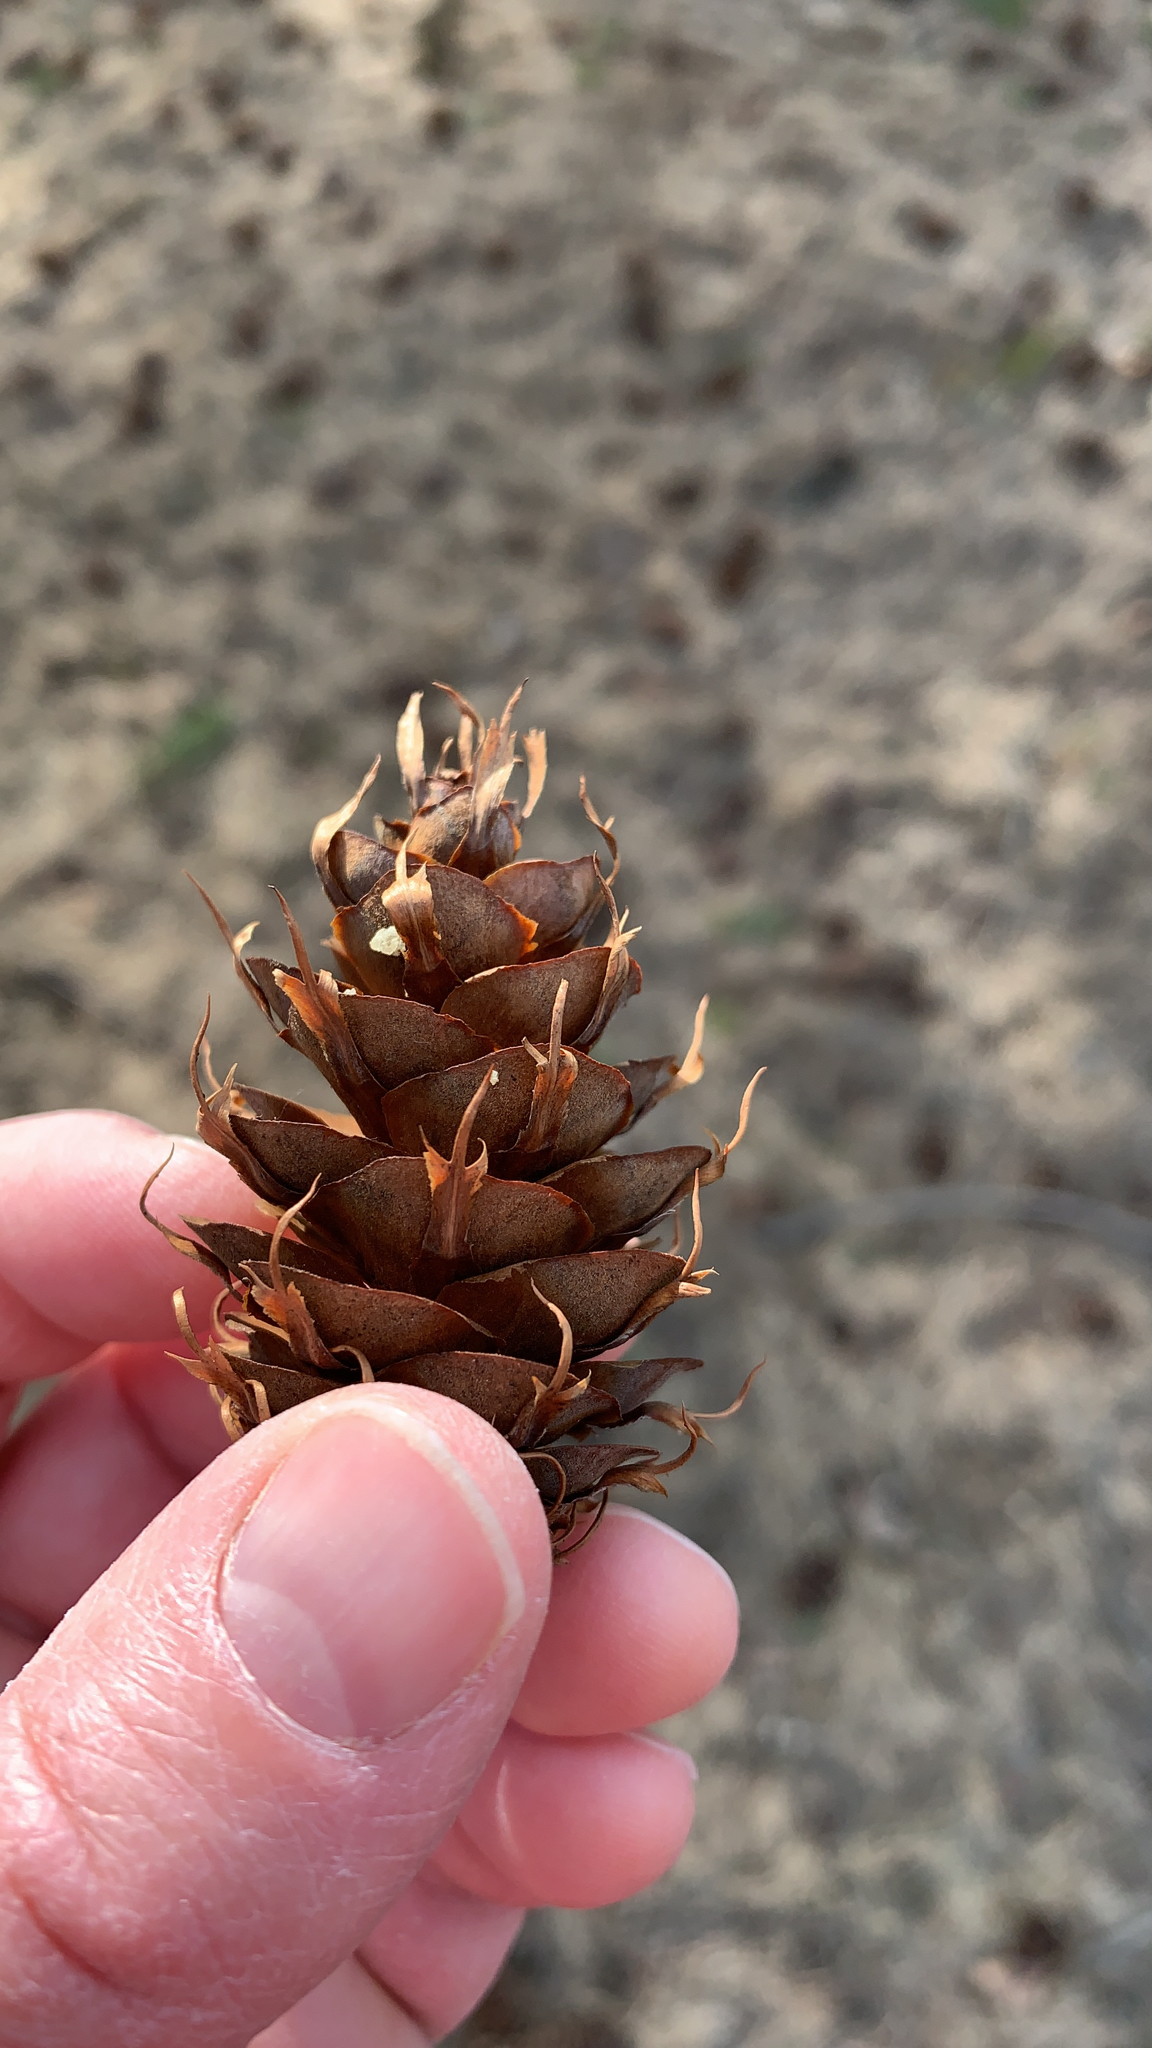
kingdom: Plantae
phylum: Tracheophyta
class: Pinopsida
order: Pinales
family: Pinaceae
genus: Pseudotsuga
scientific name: Pseudotsuga menziesii
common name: Douglas fir
